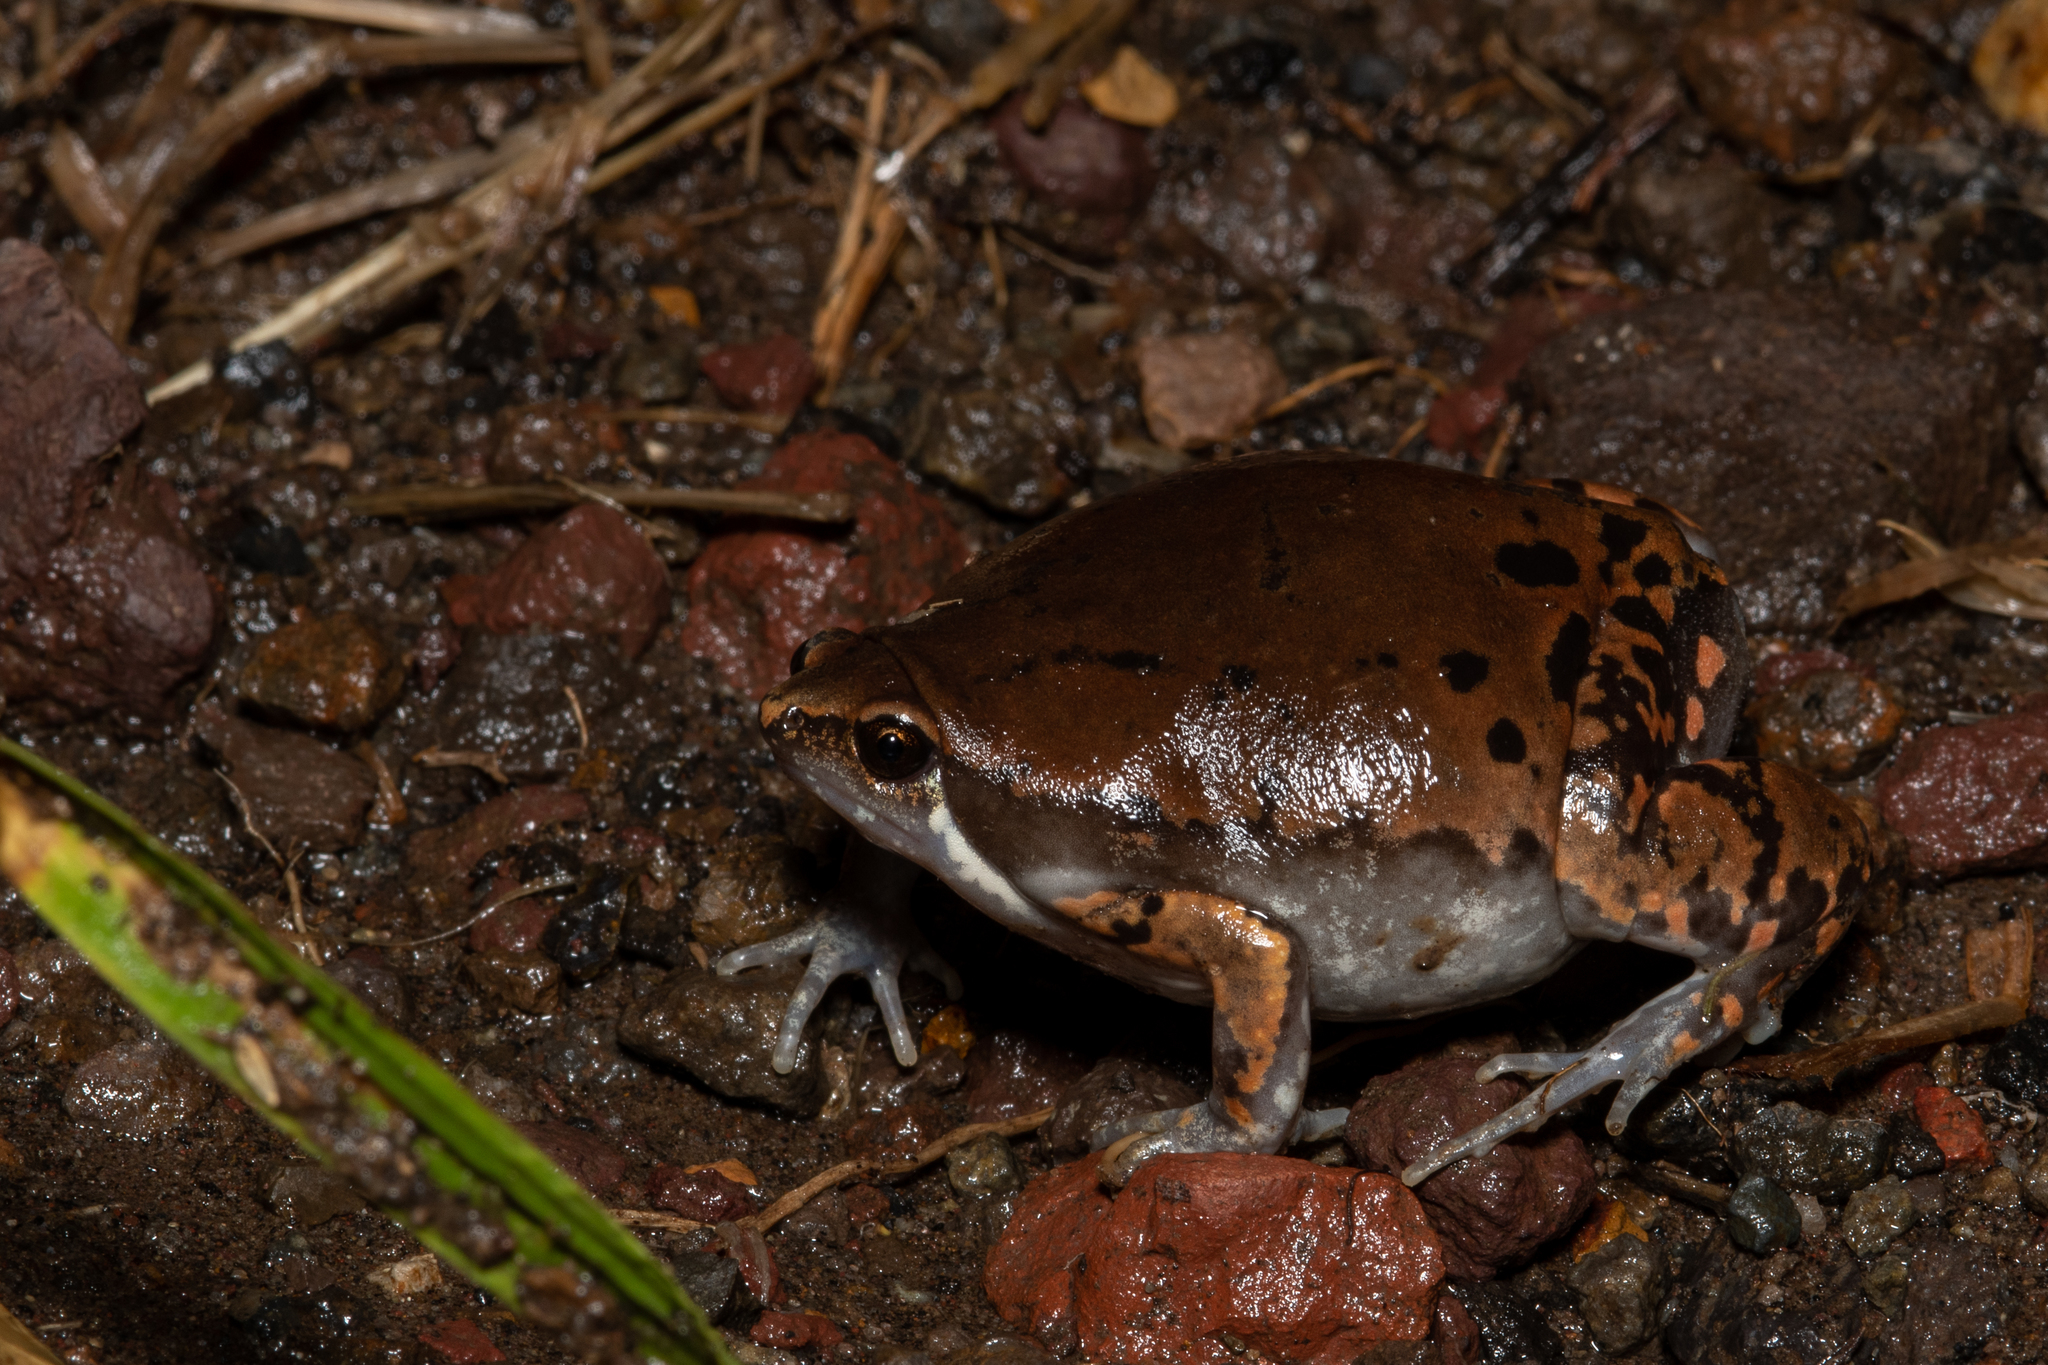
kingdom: Animalia
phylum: Chordata
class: Amphibia
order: Anura
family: Microhylidae
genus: Hypopachus
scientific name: Hypopachus variolosus
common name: Sheep frog
